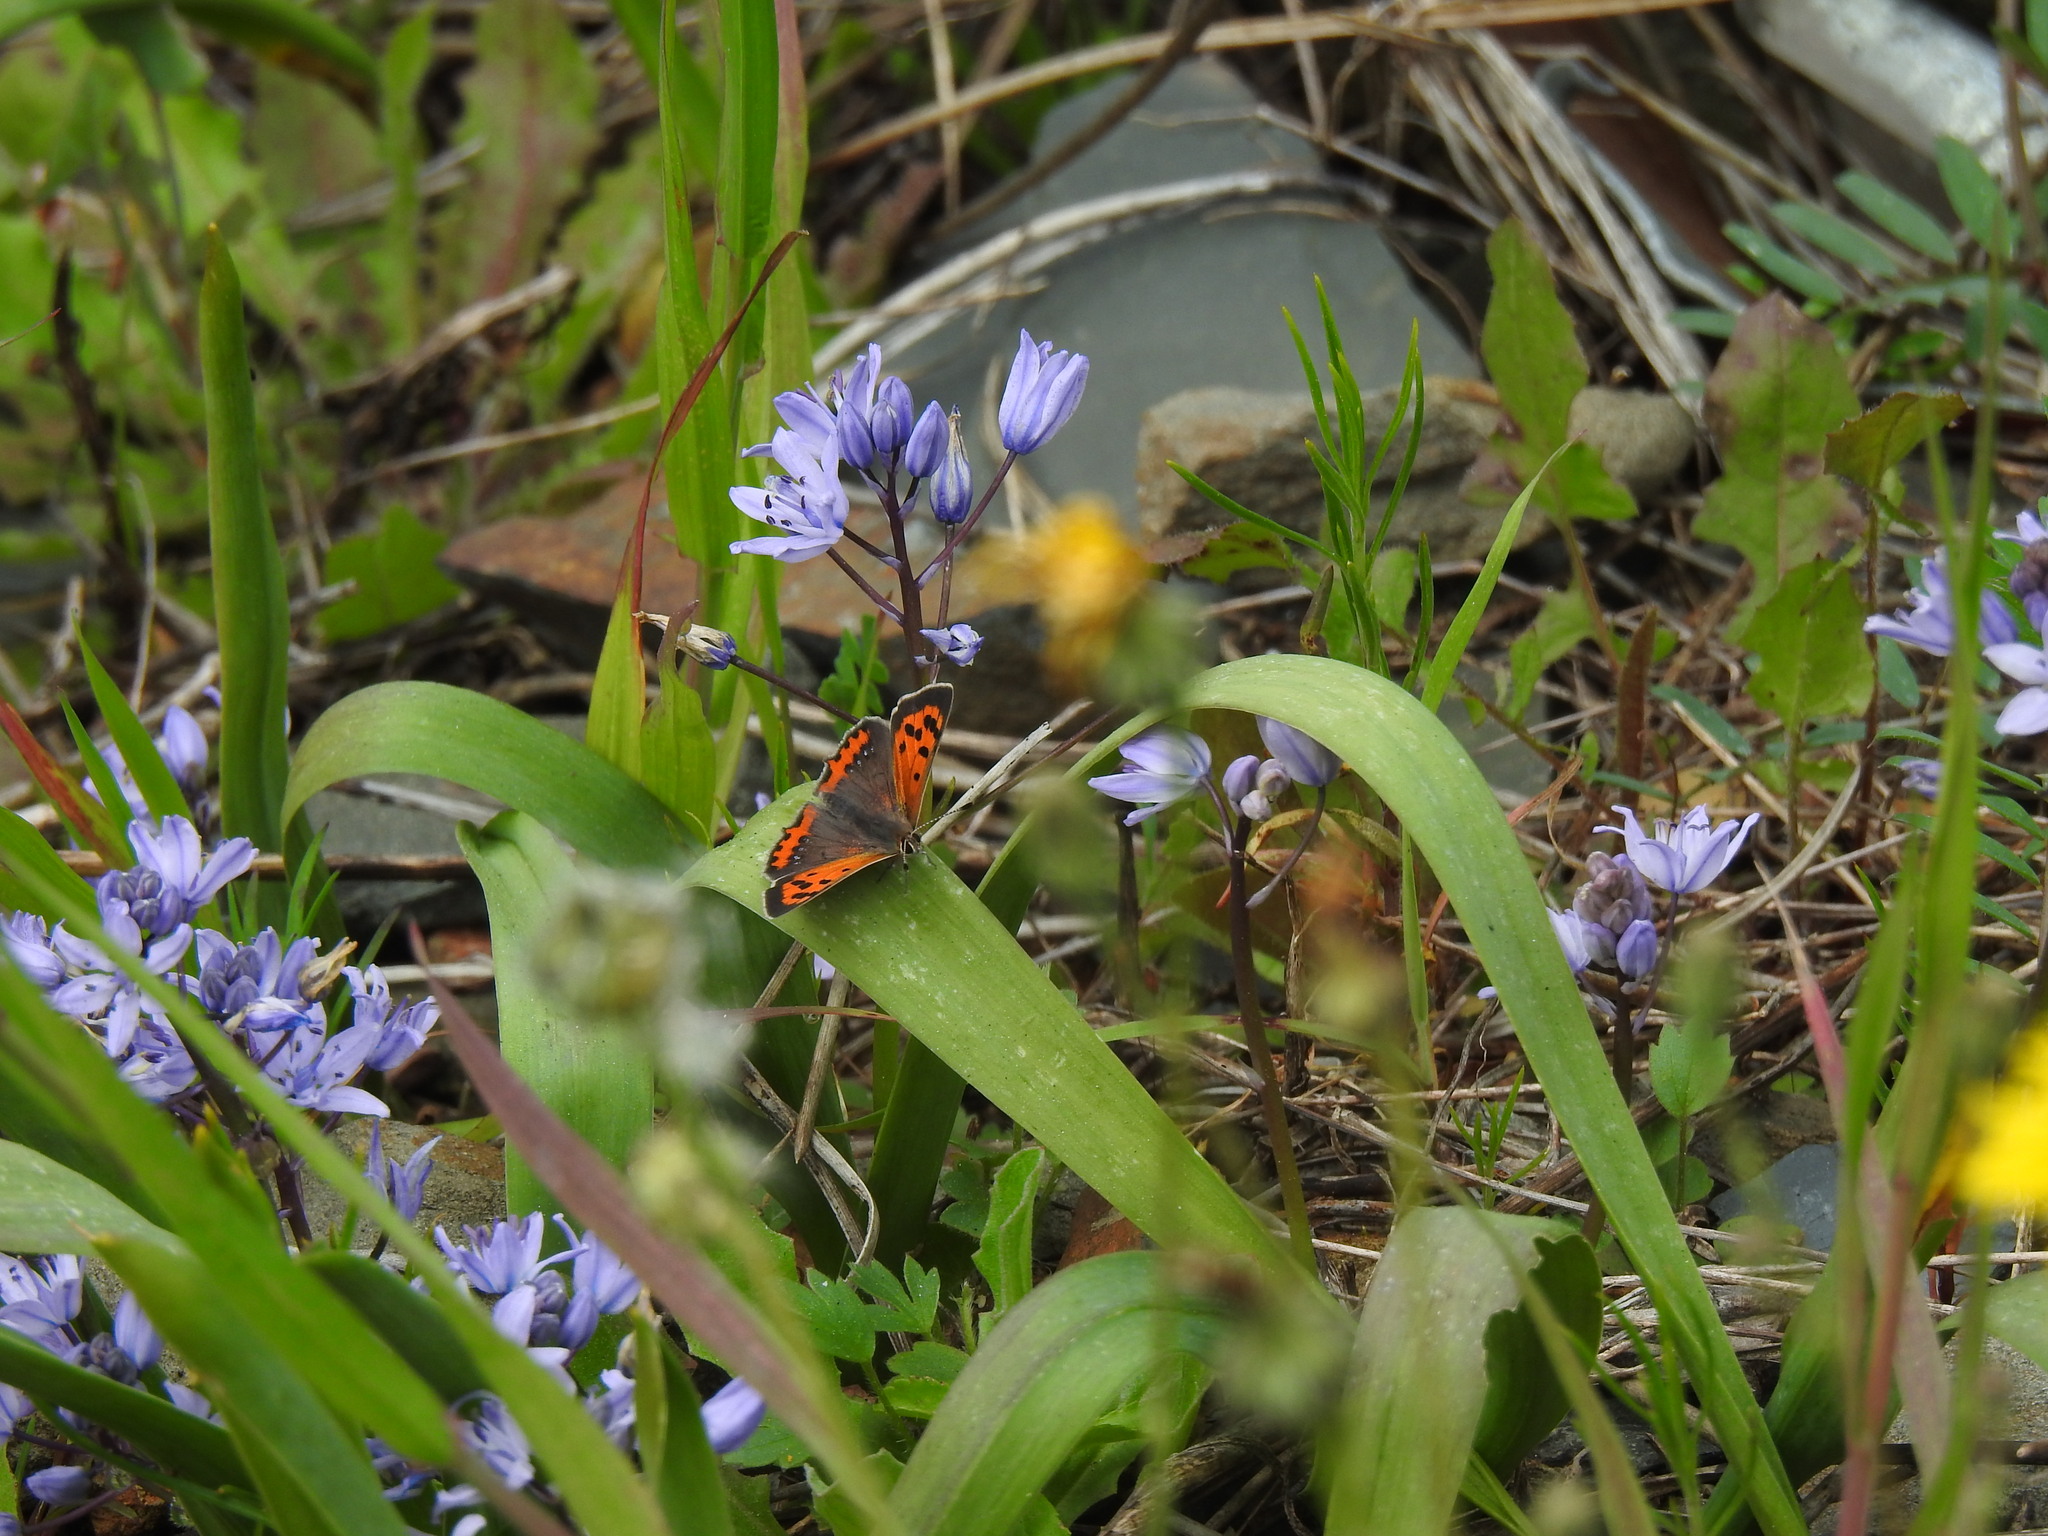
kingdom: Animalia
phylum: Arthropoda
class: Insecta
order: Lepidoptera
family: Lycaenidae
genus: Lycaena
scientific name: Lycaena phlaeas
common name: Small copper
